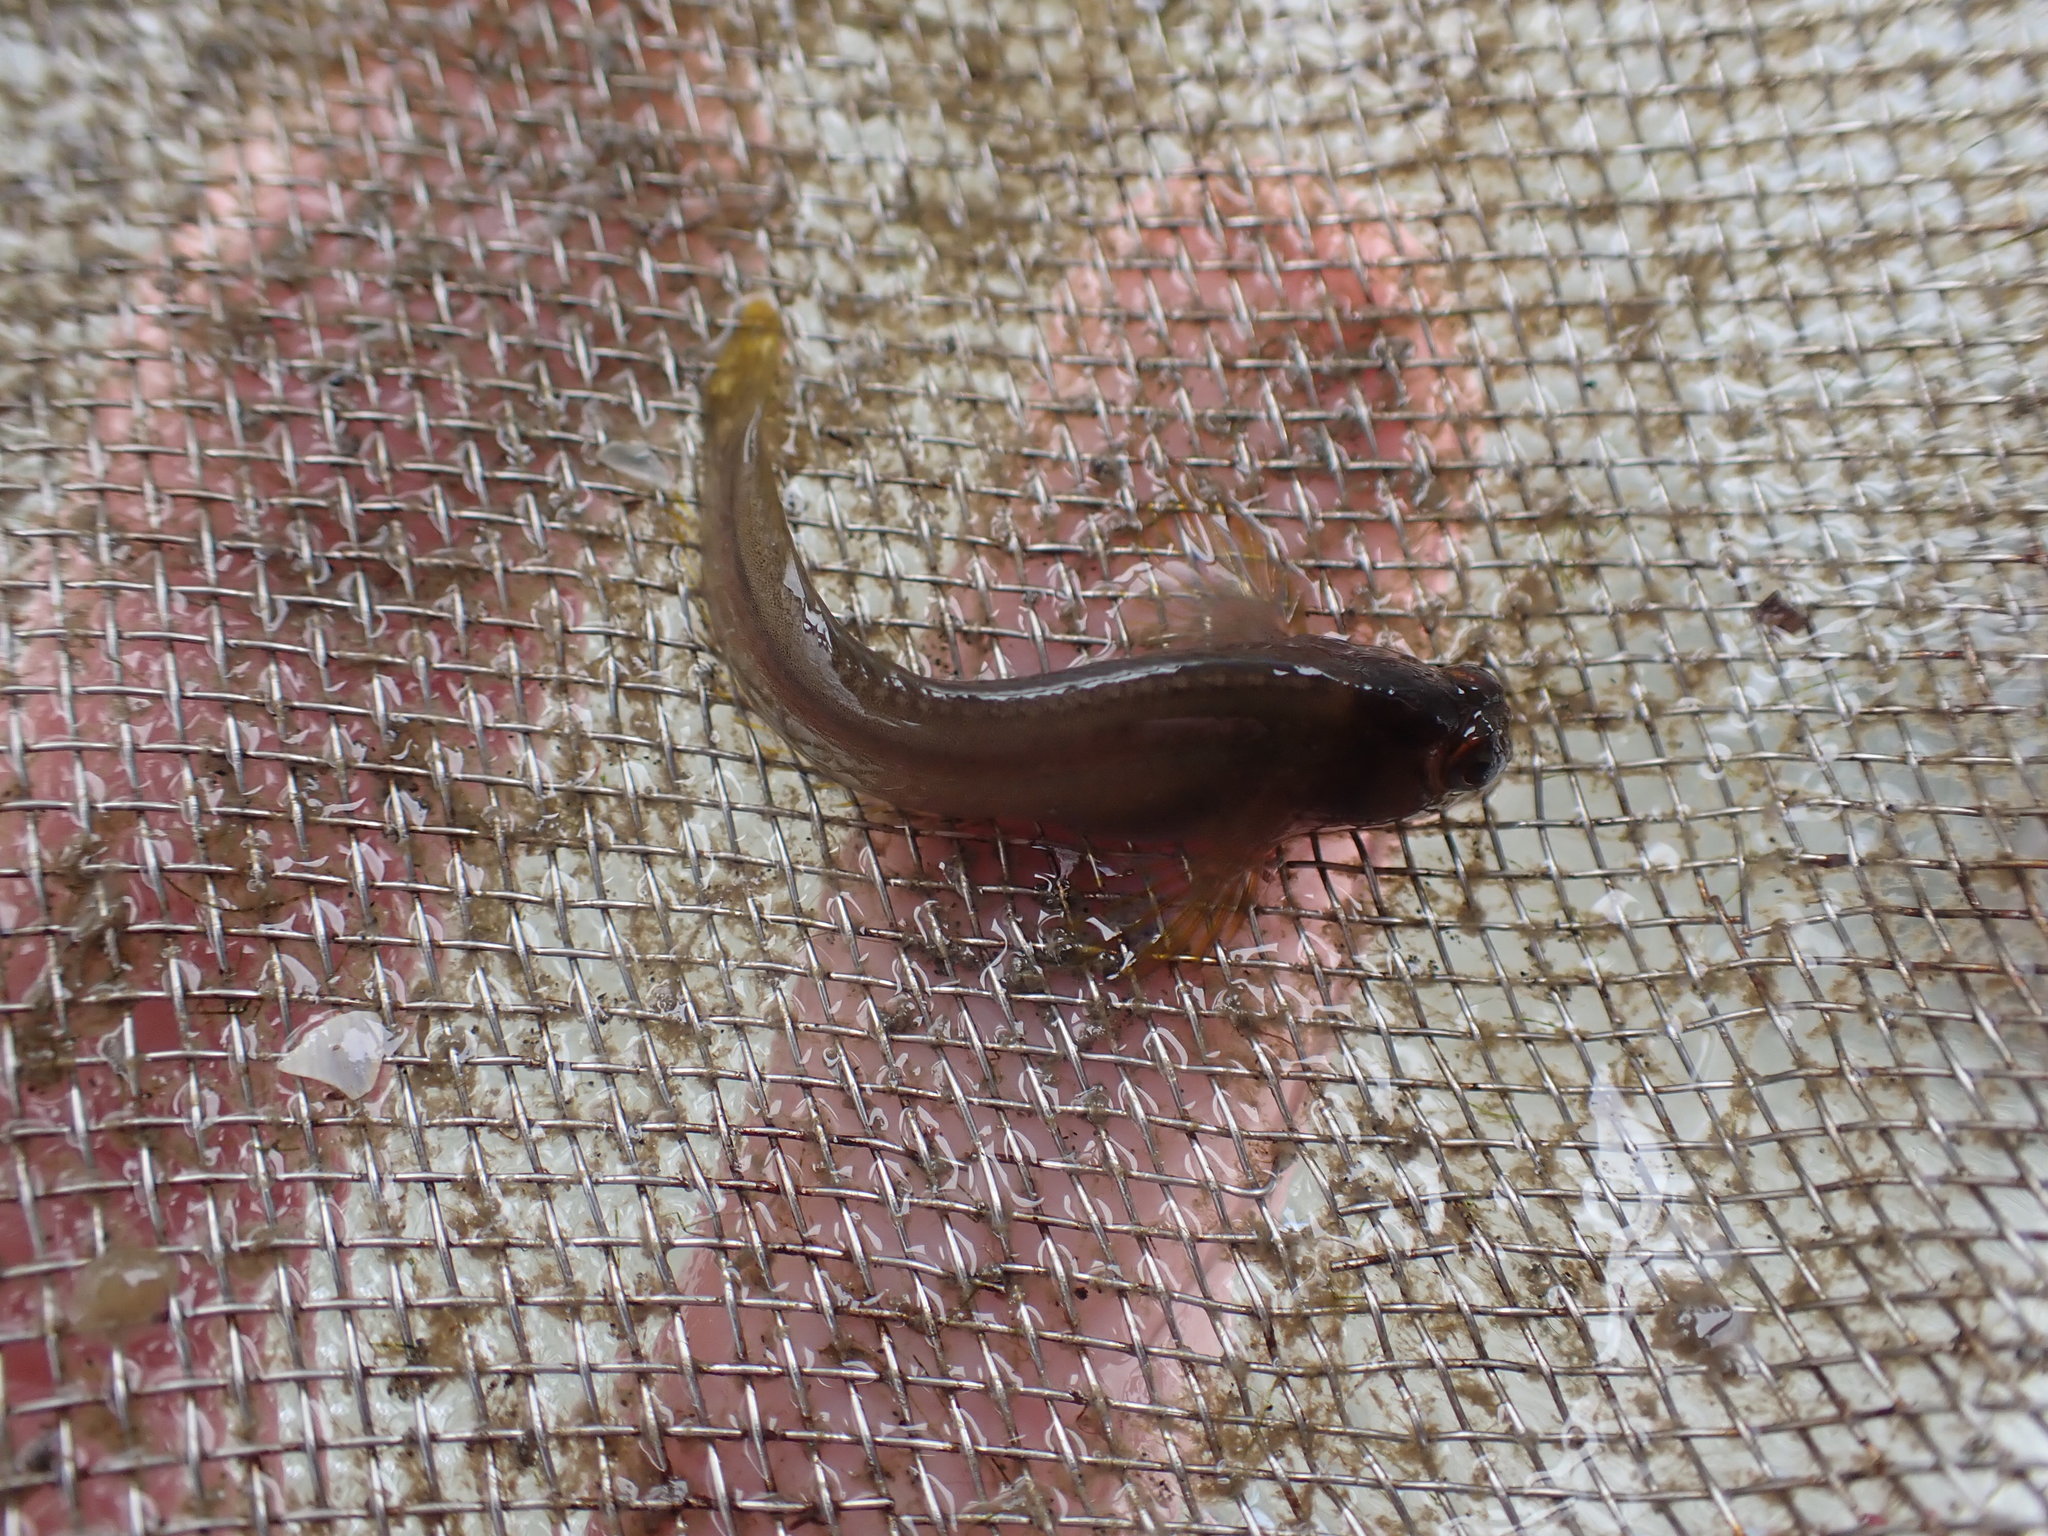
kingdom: Animalia
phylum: Chordata
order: Perciformes
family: Blenniidae
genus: Parablennius
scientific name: Parablennius laticlavius
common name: Crested blenny
